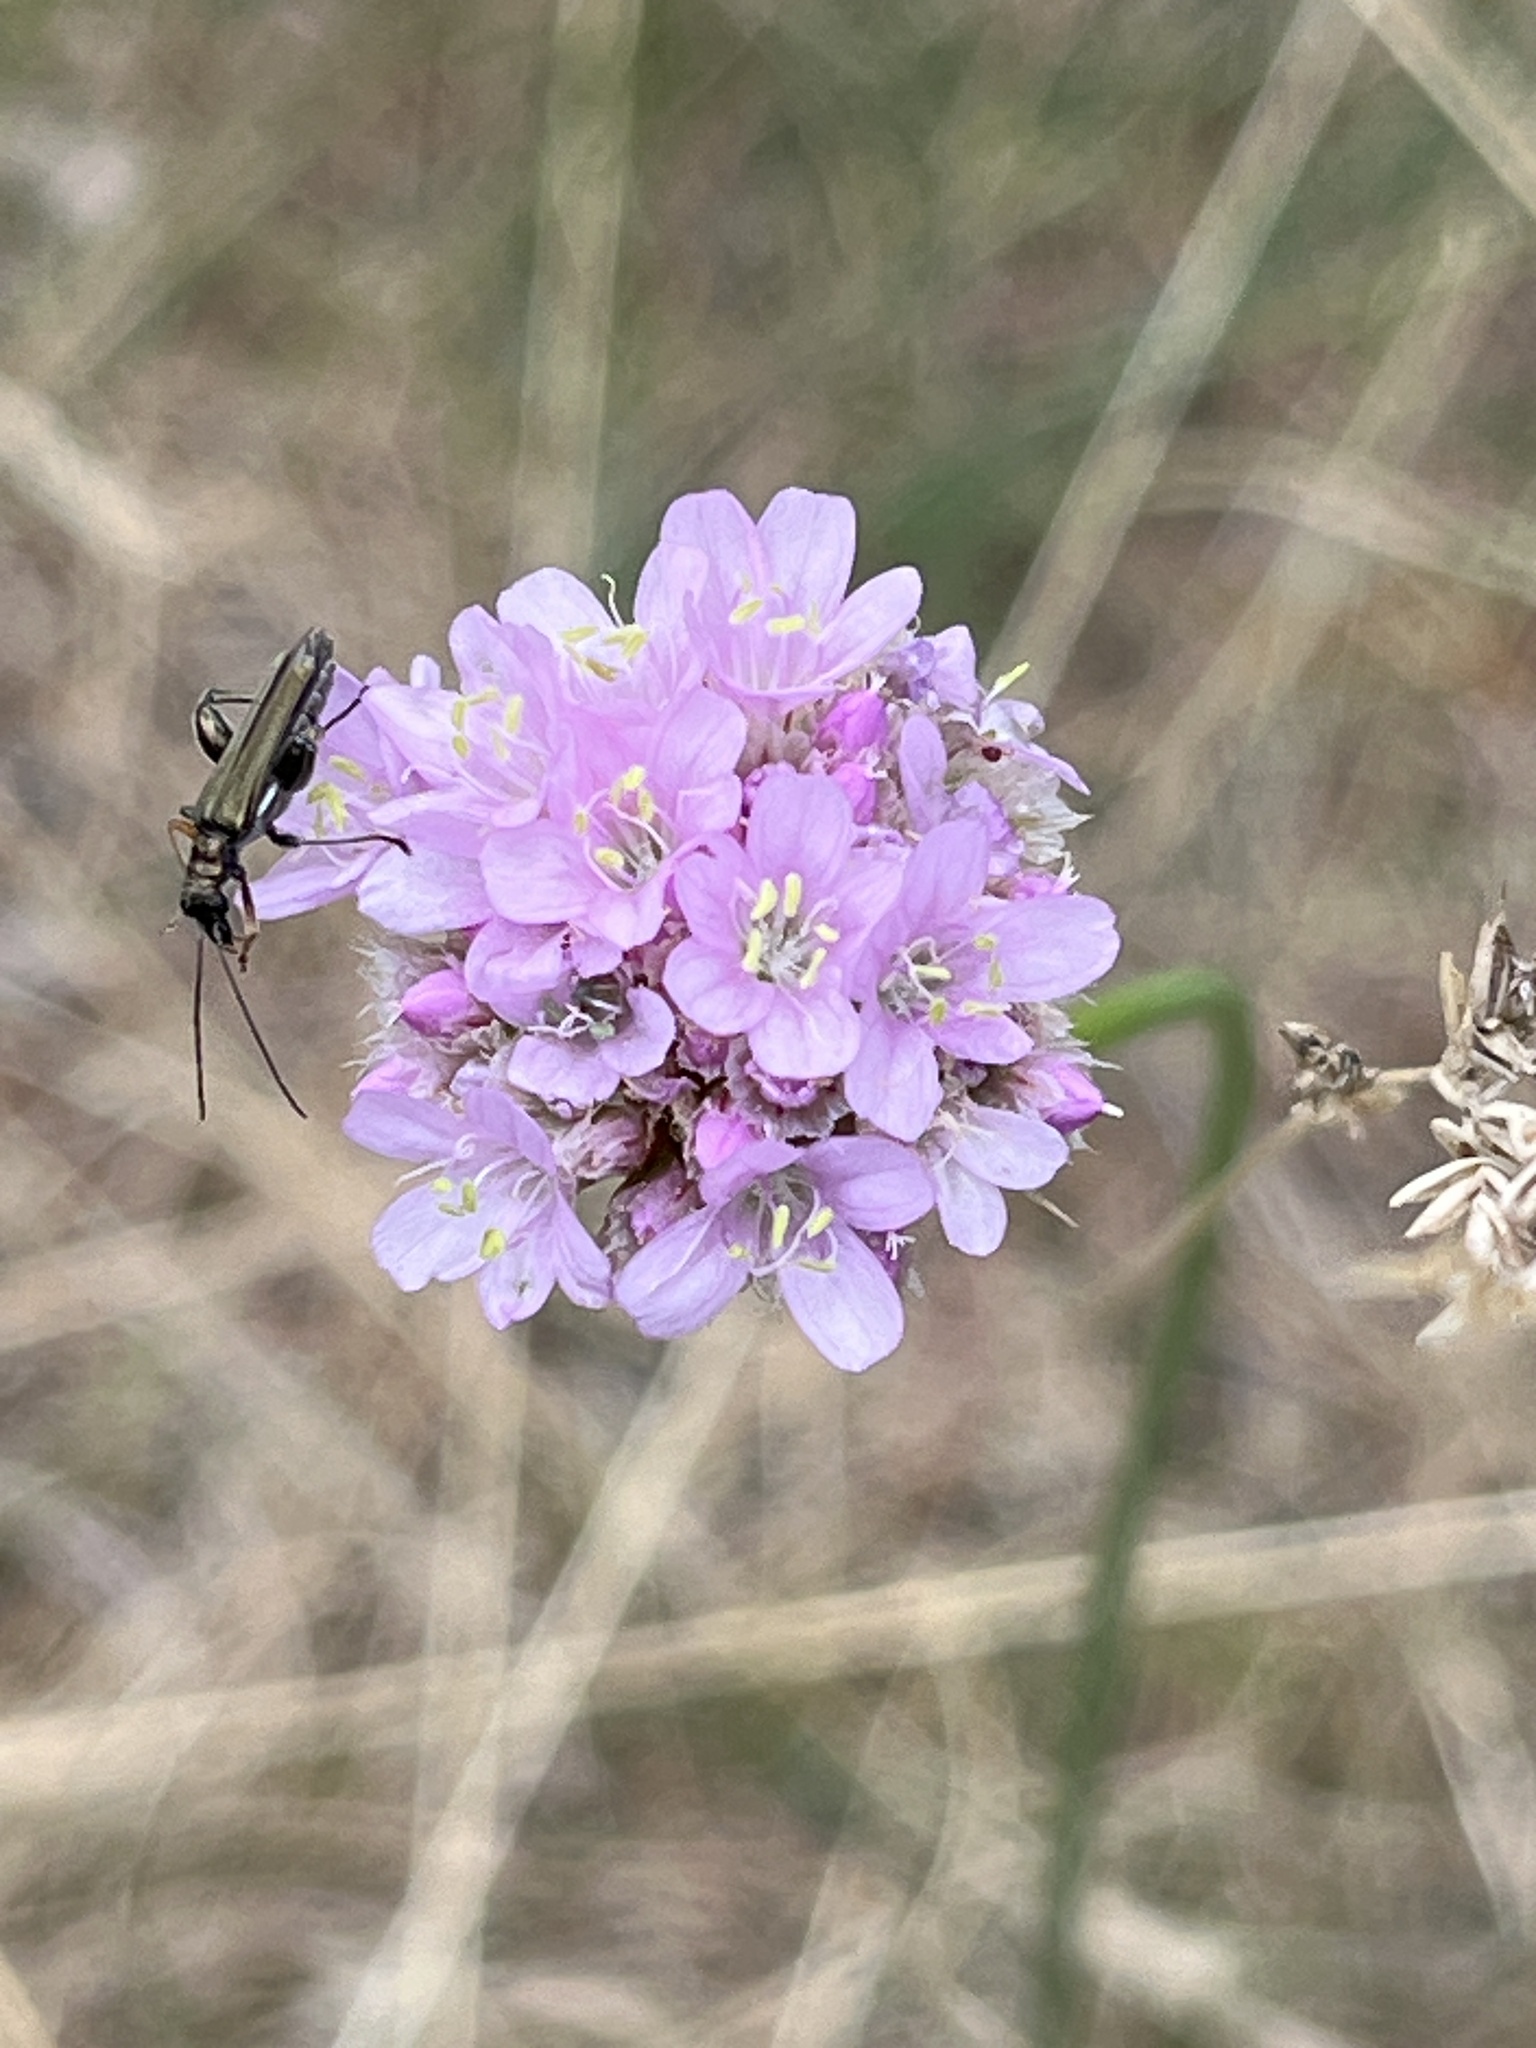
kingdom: Animalia
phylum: Arthropoda
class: Insecta
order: Coleoptera
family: Oedemeridae
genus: Oedemera
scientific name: Oedemera flavipes
